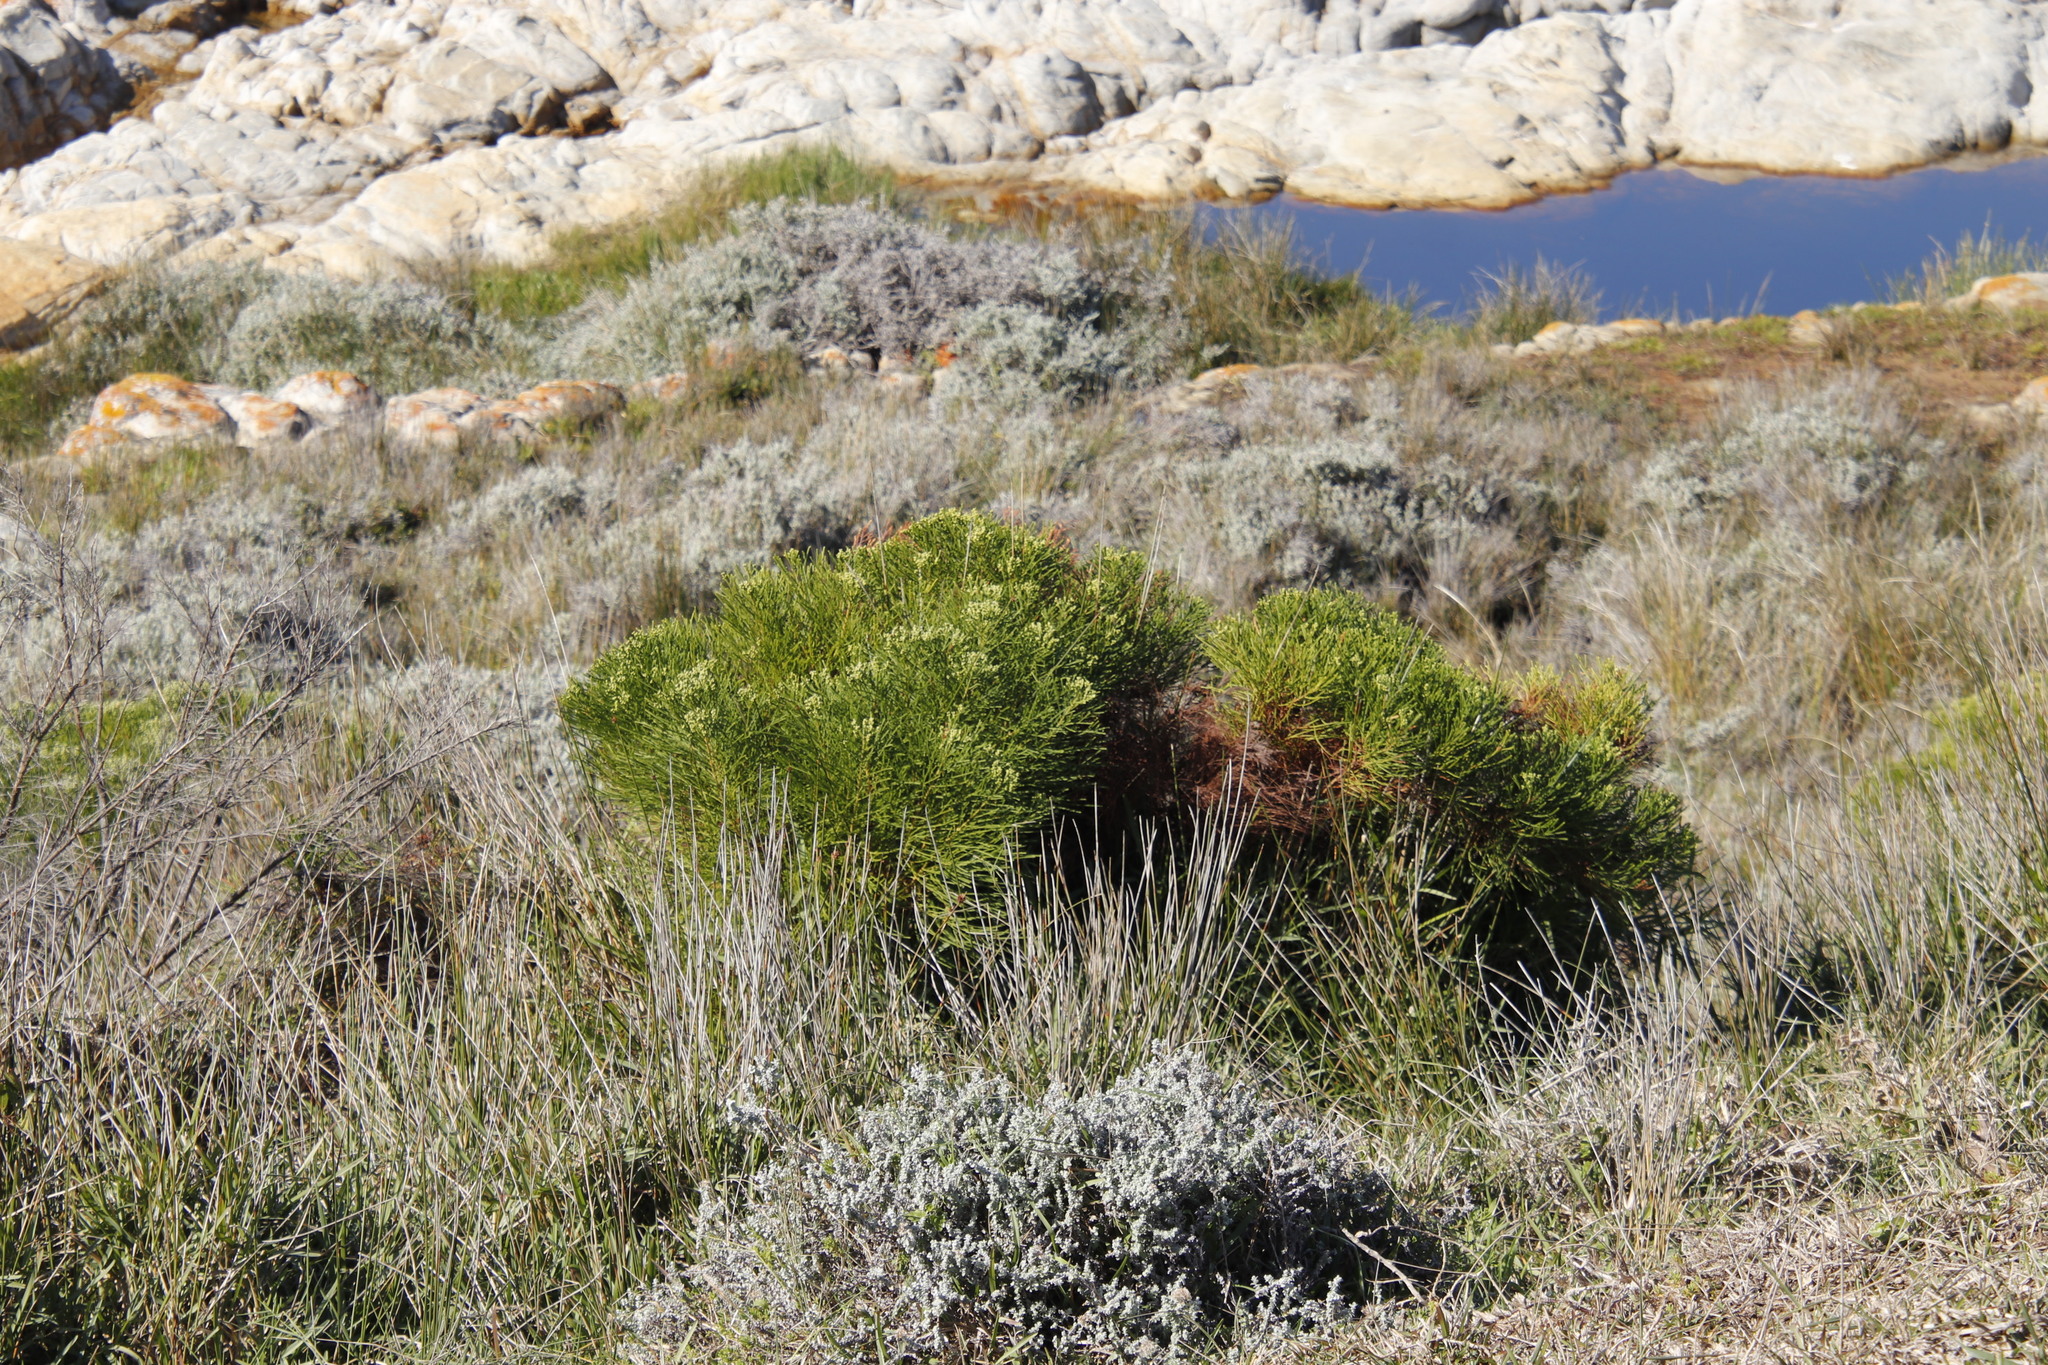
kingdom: Plantae
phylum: Tracheophyta
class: Magnoliopsida
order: Bruniales
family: Bruniaceae
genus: Berzelia
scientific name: Berzelia lanuginosa
